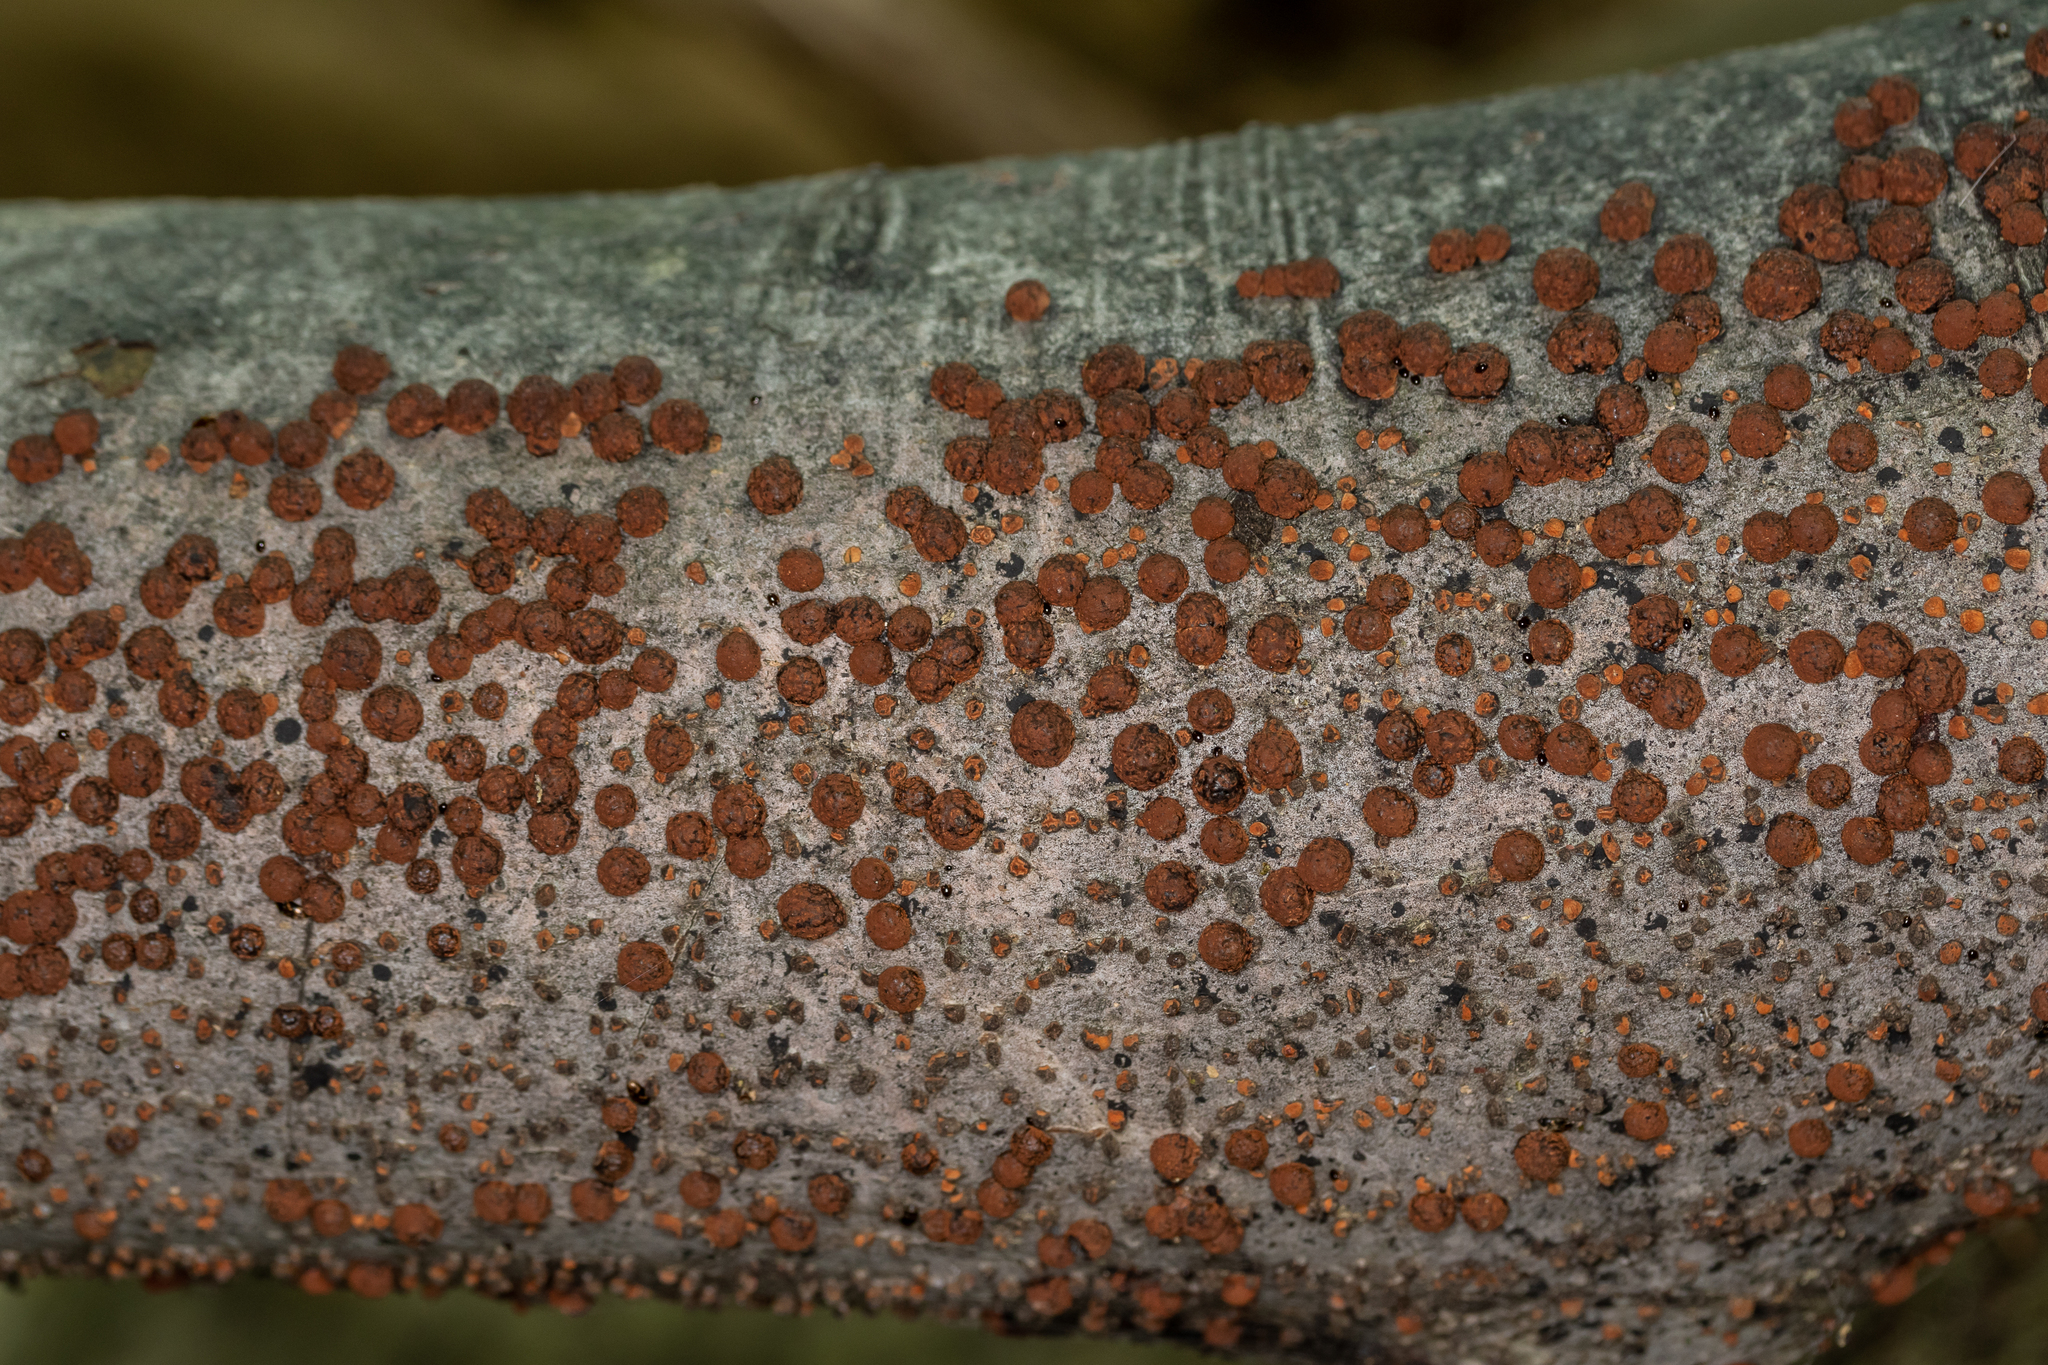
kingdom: Fungi
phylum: Ascomycota
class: Sordariomycetes
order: Xylariales
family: Hypoxylaceae
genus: Hypoxylon
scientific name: Hypoxylon fragiforme
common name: Beech woodwart
